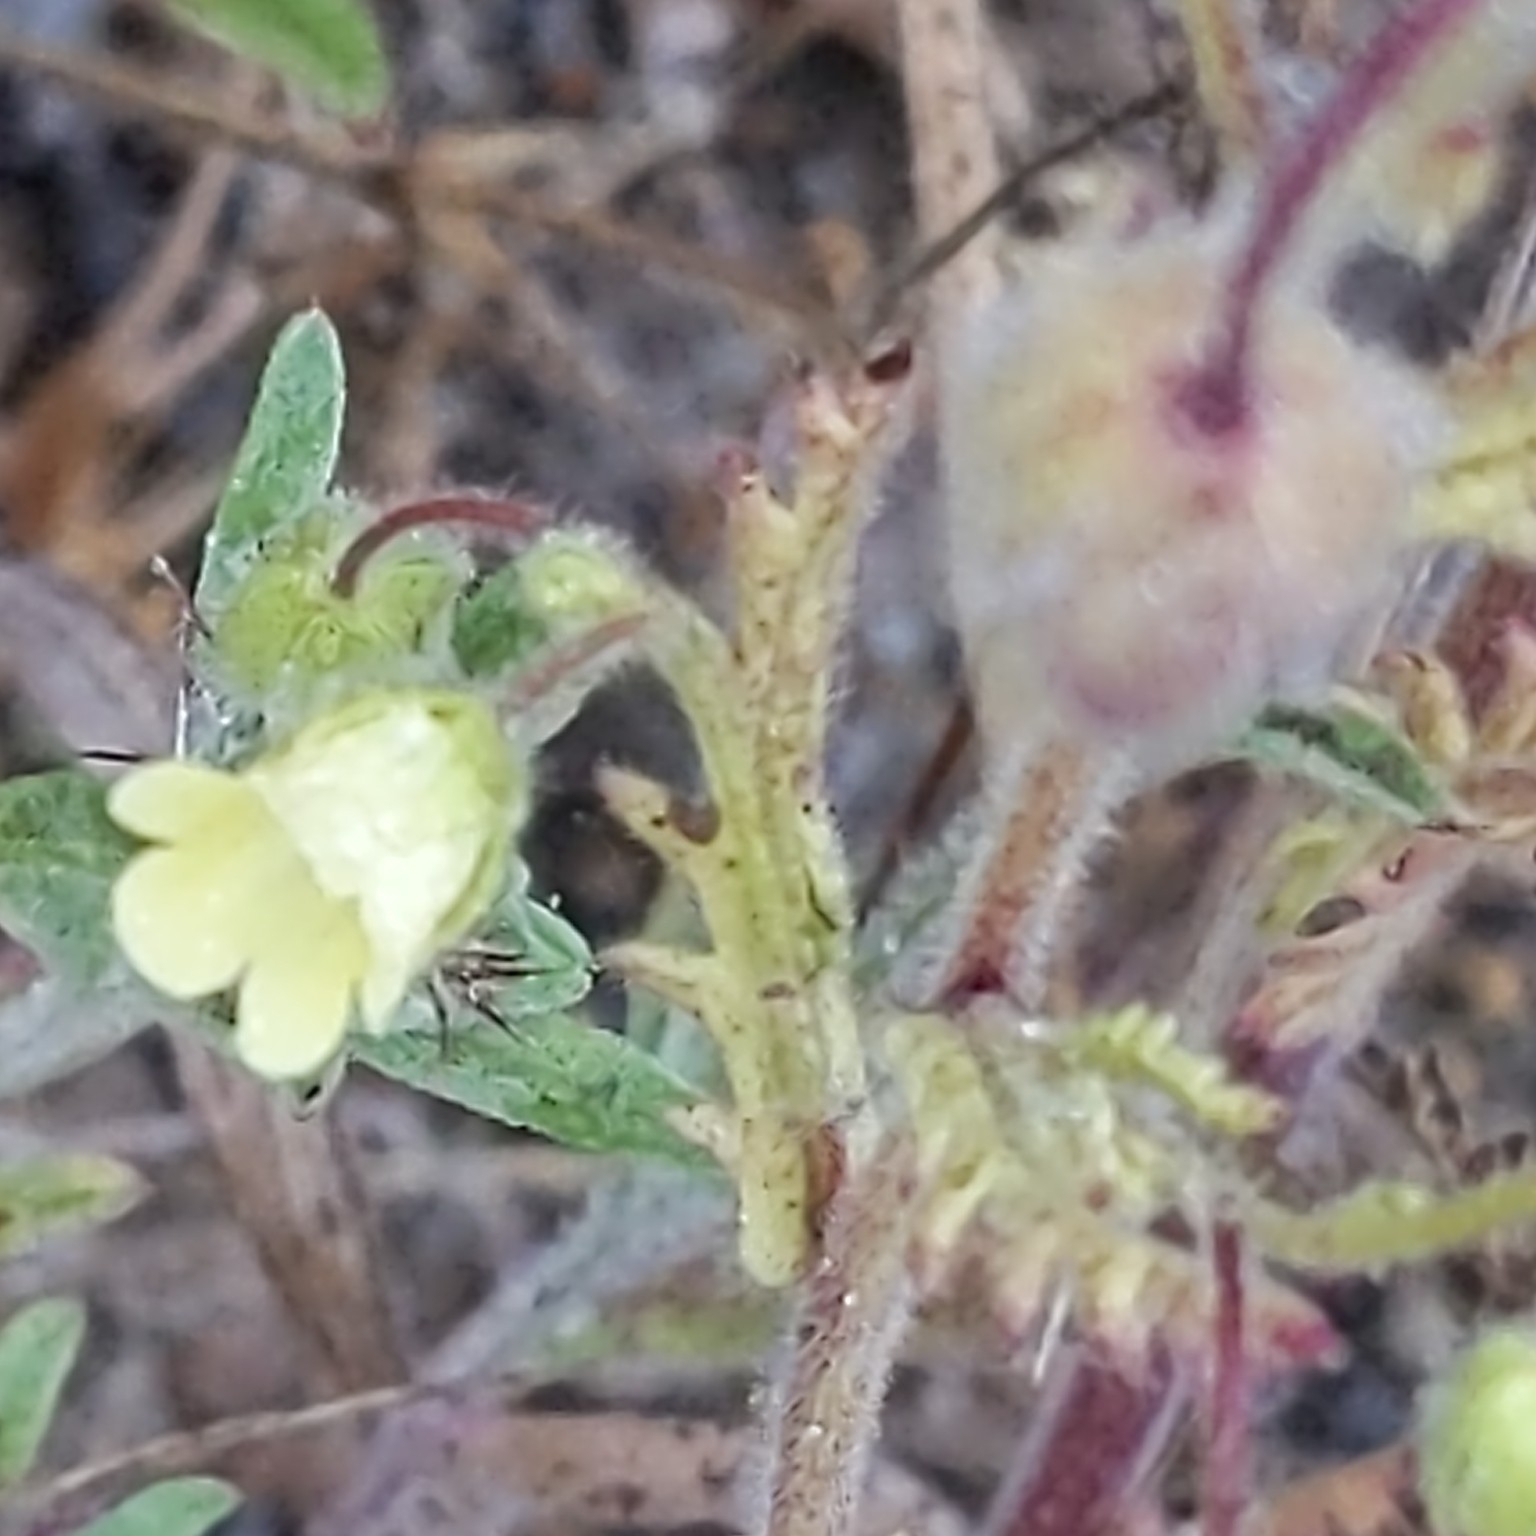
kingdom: Plantae
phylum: Tracheophyta
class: Magnoliopsida
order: Boraginales
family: Hydrophyllaceae
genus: Emmenanthe
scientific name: Emmenanthe penduliflora
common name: Whispering-bells
